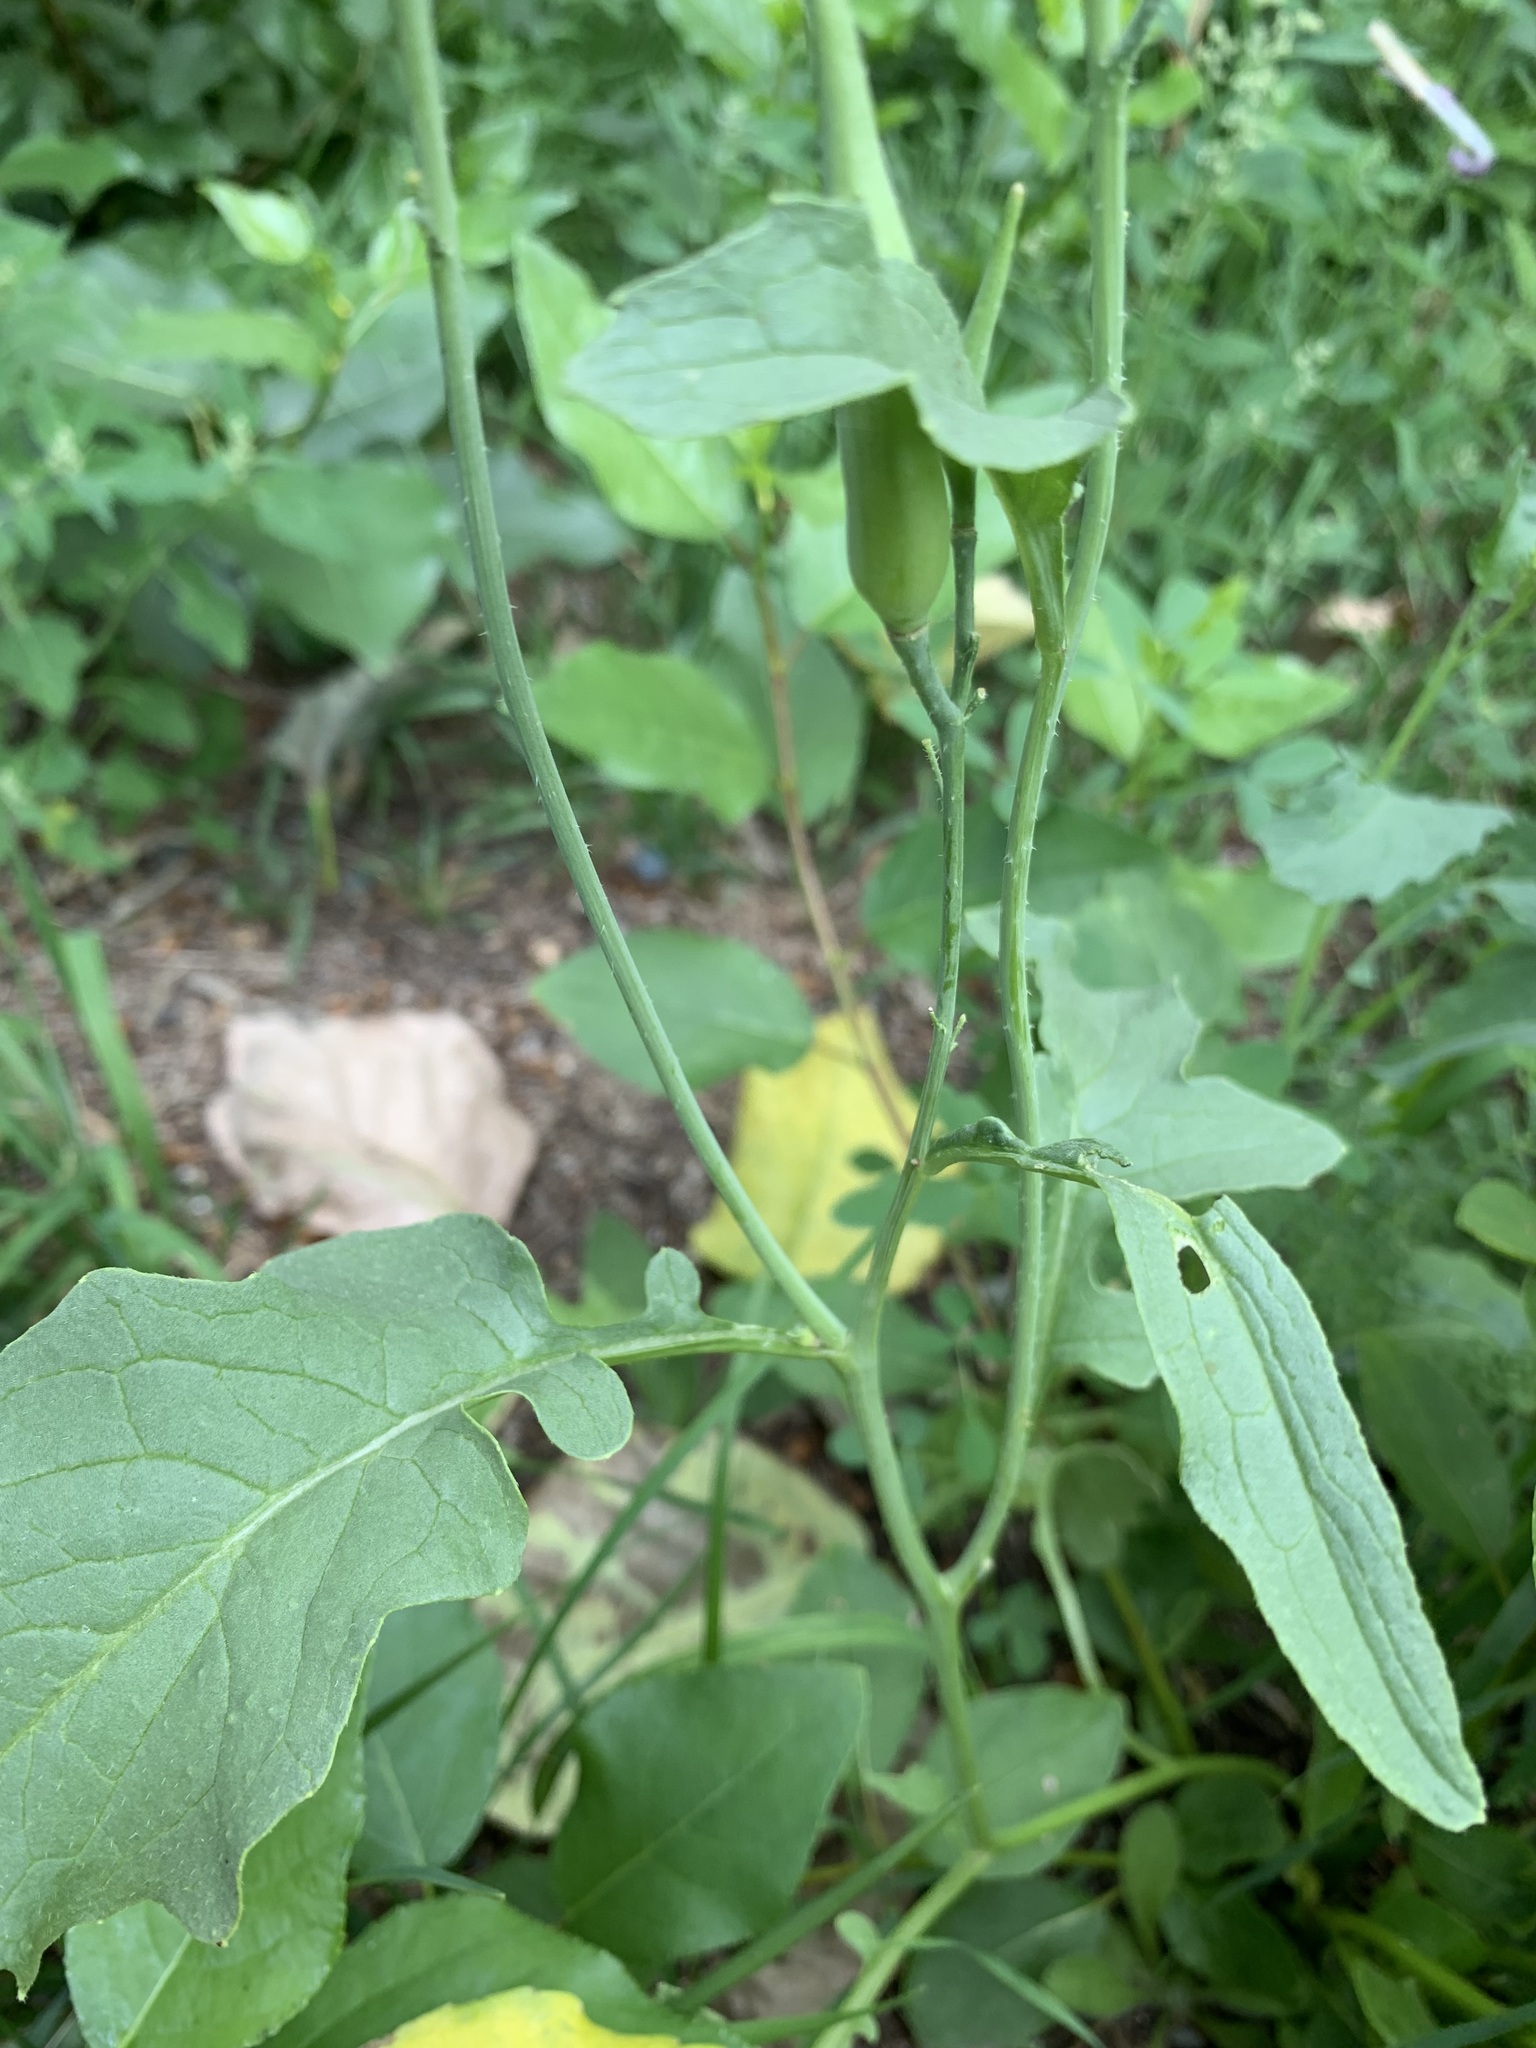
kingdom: Plantae
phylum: Tracheophyta
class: Magnoliopsida
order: Brassicales
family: Brassicaceae
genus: Raphanus
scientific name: Raphanus sativus
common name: Cultivated radish
